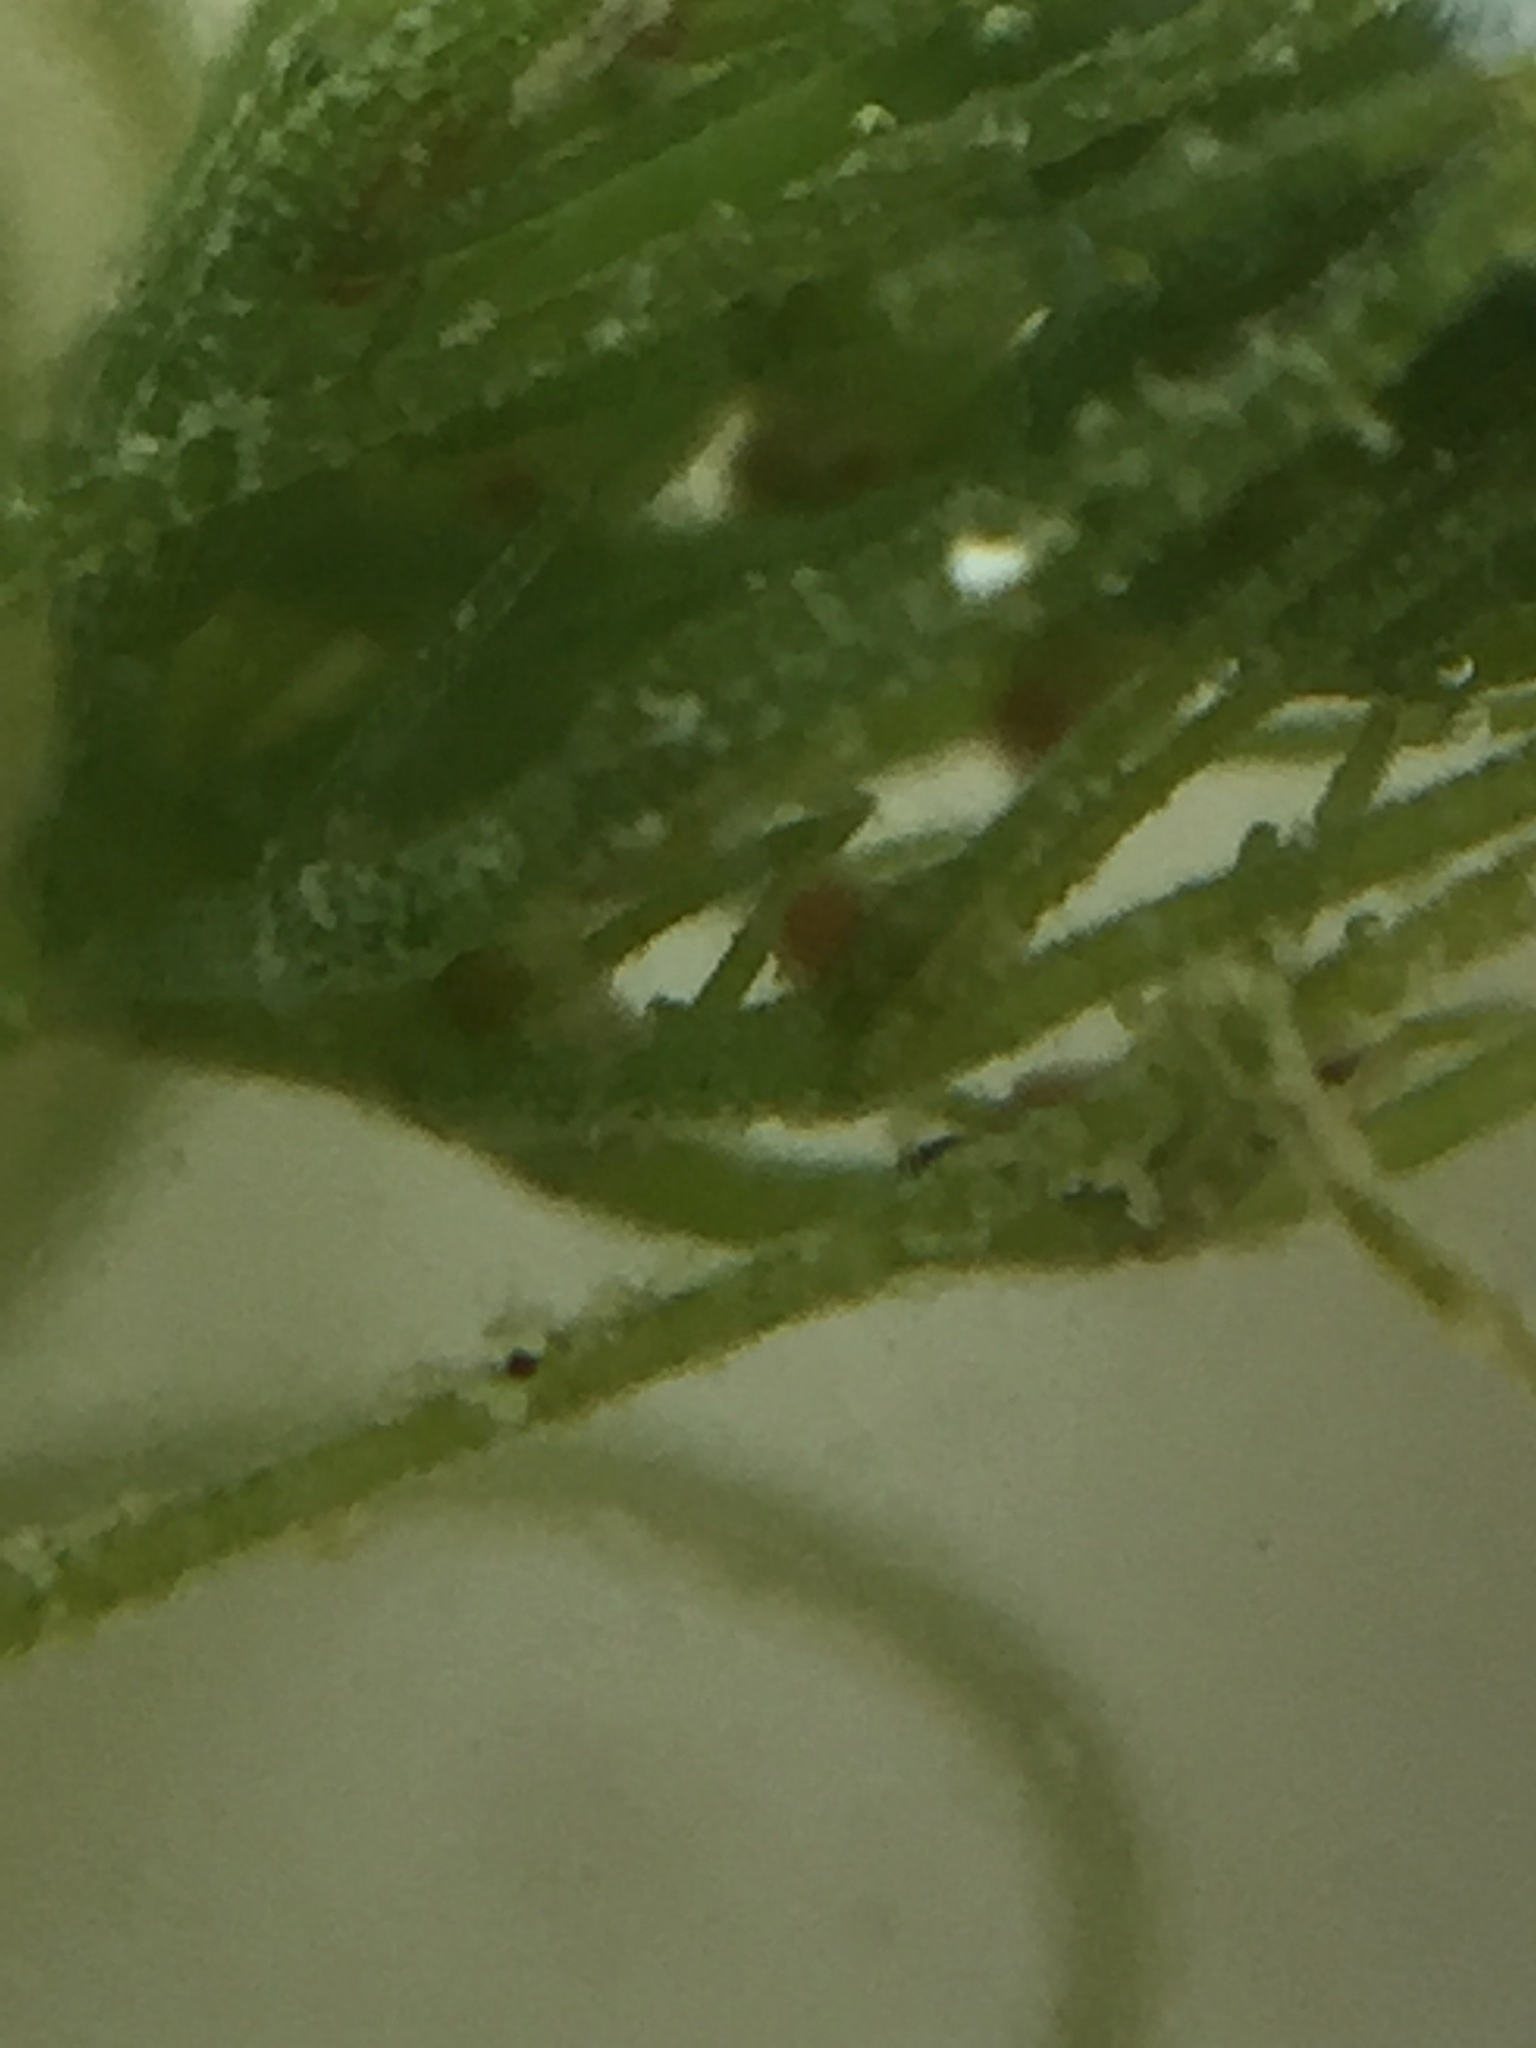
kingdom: Plantae
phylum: Charophyta
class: Charophyceae
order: Charales
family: Characeae
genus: Chara
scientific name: Chara vulgaris
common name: Common stonewort
